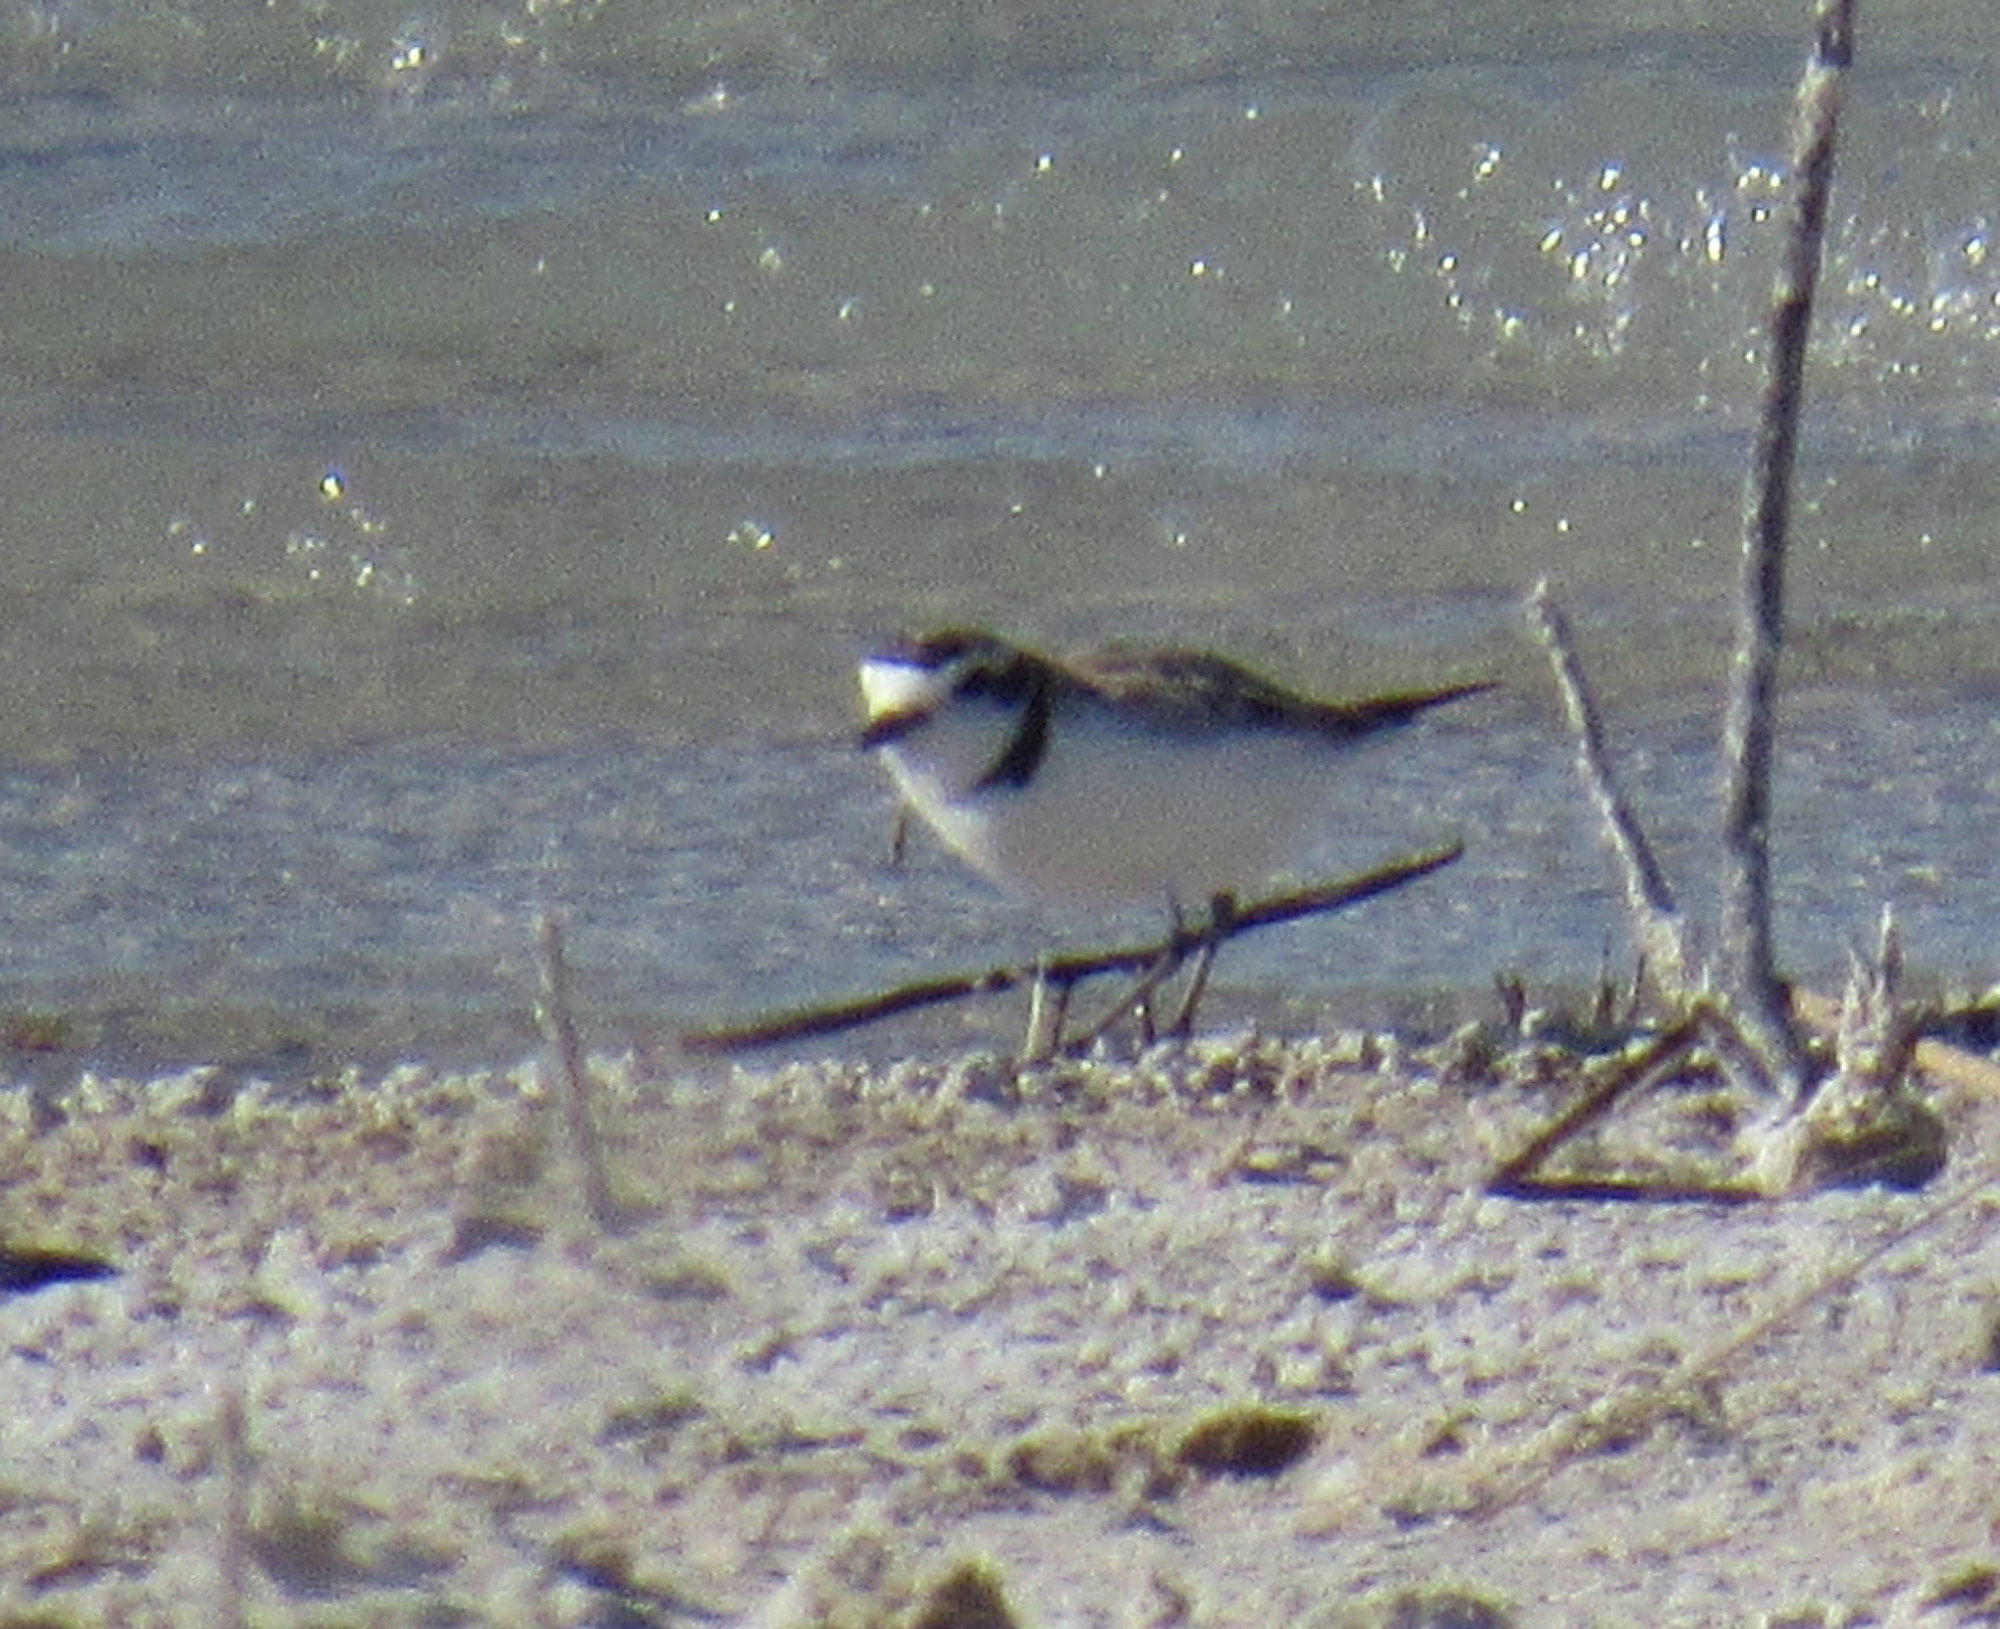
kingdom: Animalia
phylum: Chordata
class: Aves
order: Charadriiformes
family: Charadriidae
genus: Anarhynchus
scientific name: Anarhynchus
